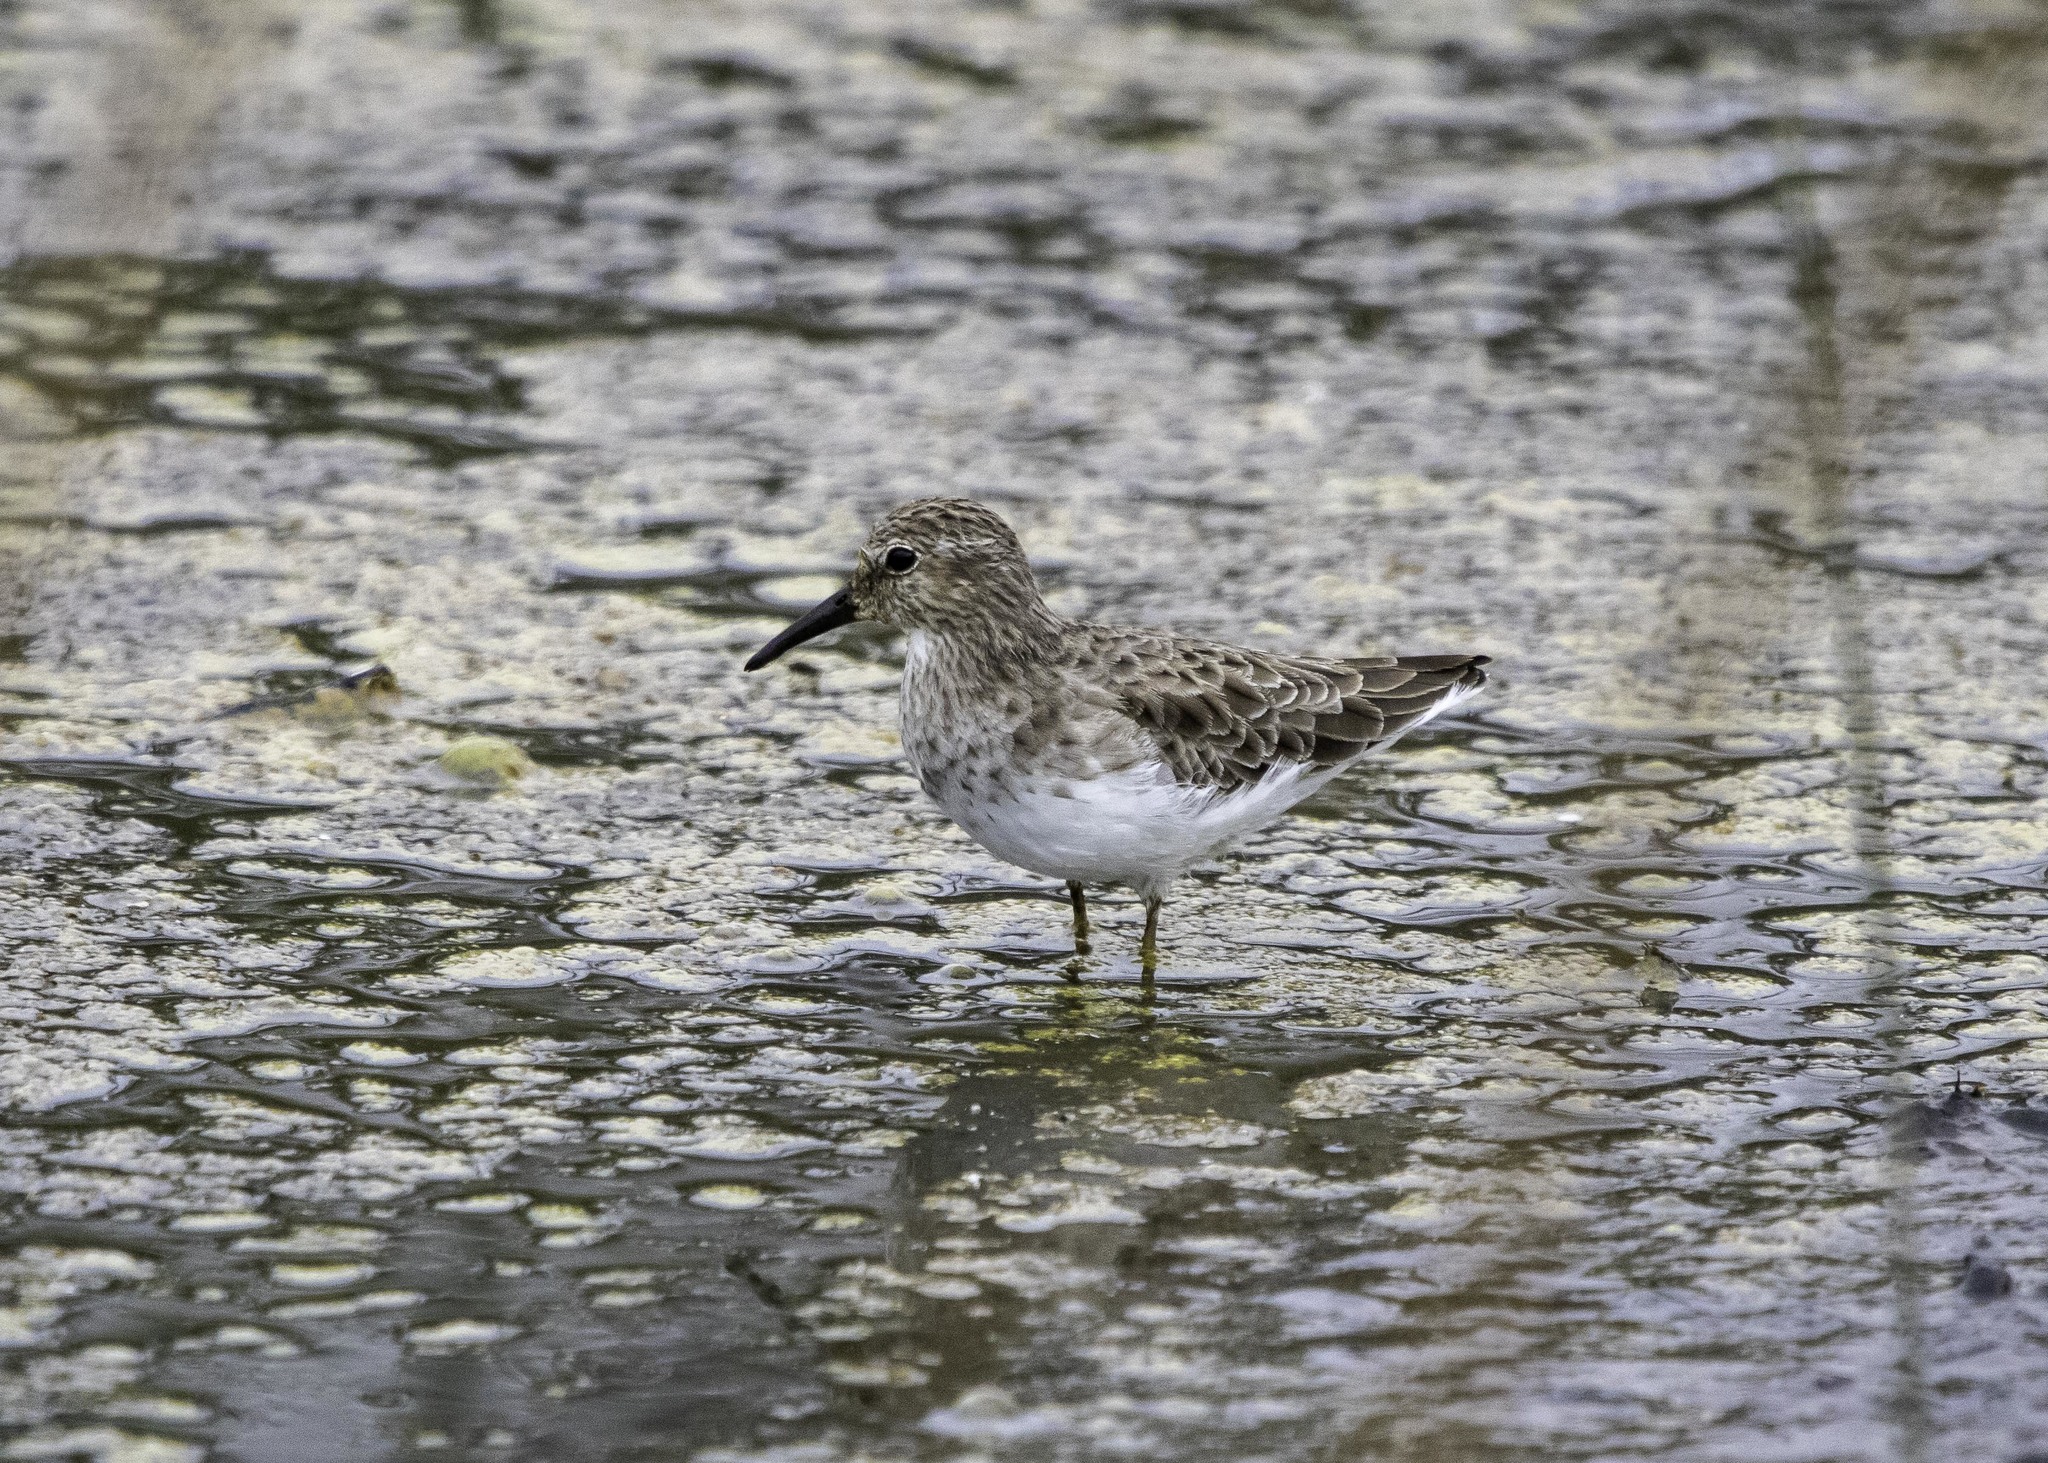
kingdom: Animalia
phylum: Chordata
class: Aves
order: Charadriiformes
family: Scolopacidae
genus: Calidris
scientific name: Calidris minutilla
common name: Least sandpiper
